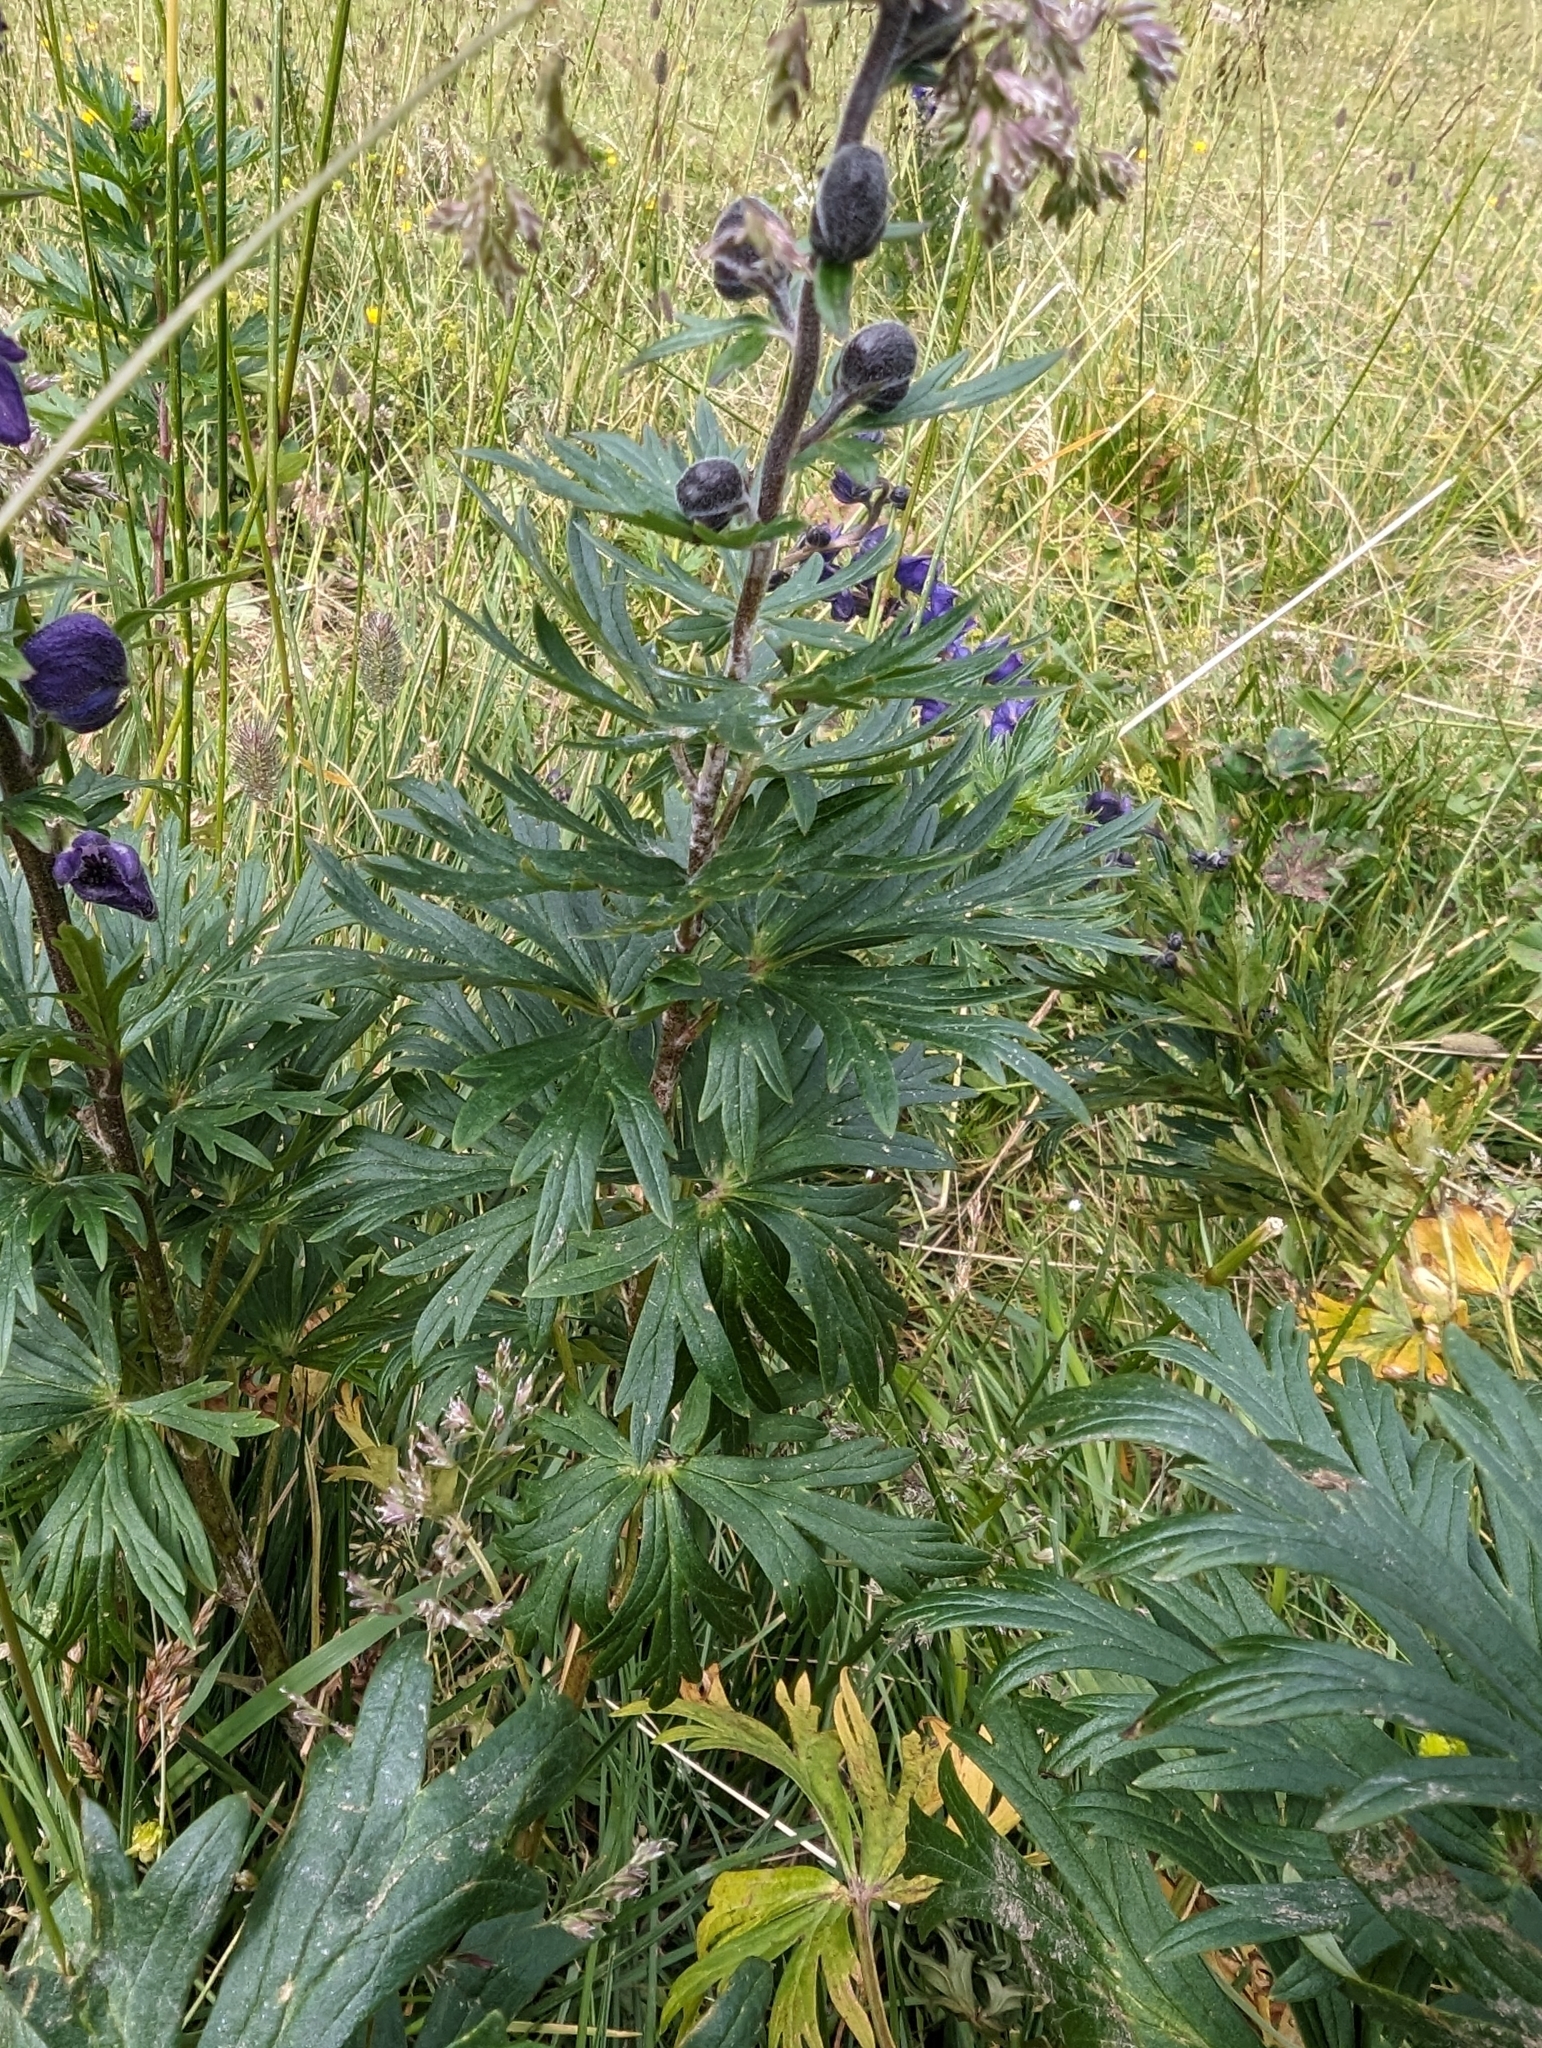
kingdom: Plantae
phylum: Tracheophyta
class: Magnoliopsida
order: Ranunculales
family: Ranunculaceae
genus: Aconitum
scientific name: Aconitum napellus
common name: Garden monkshood
